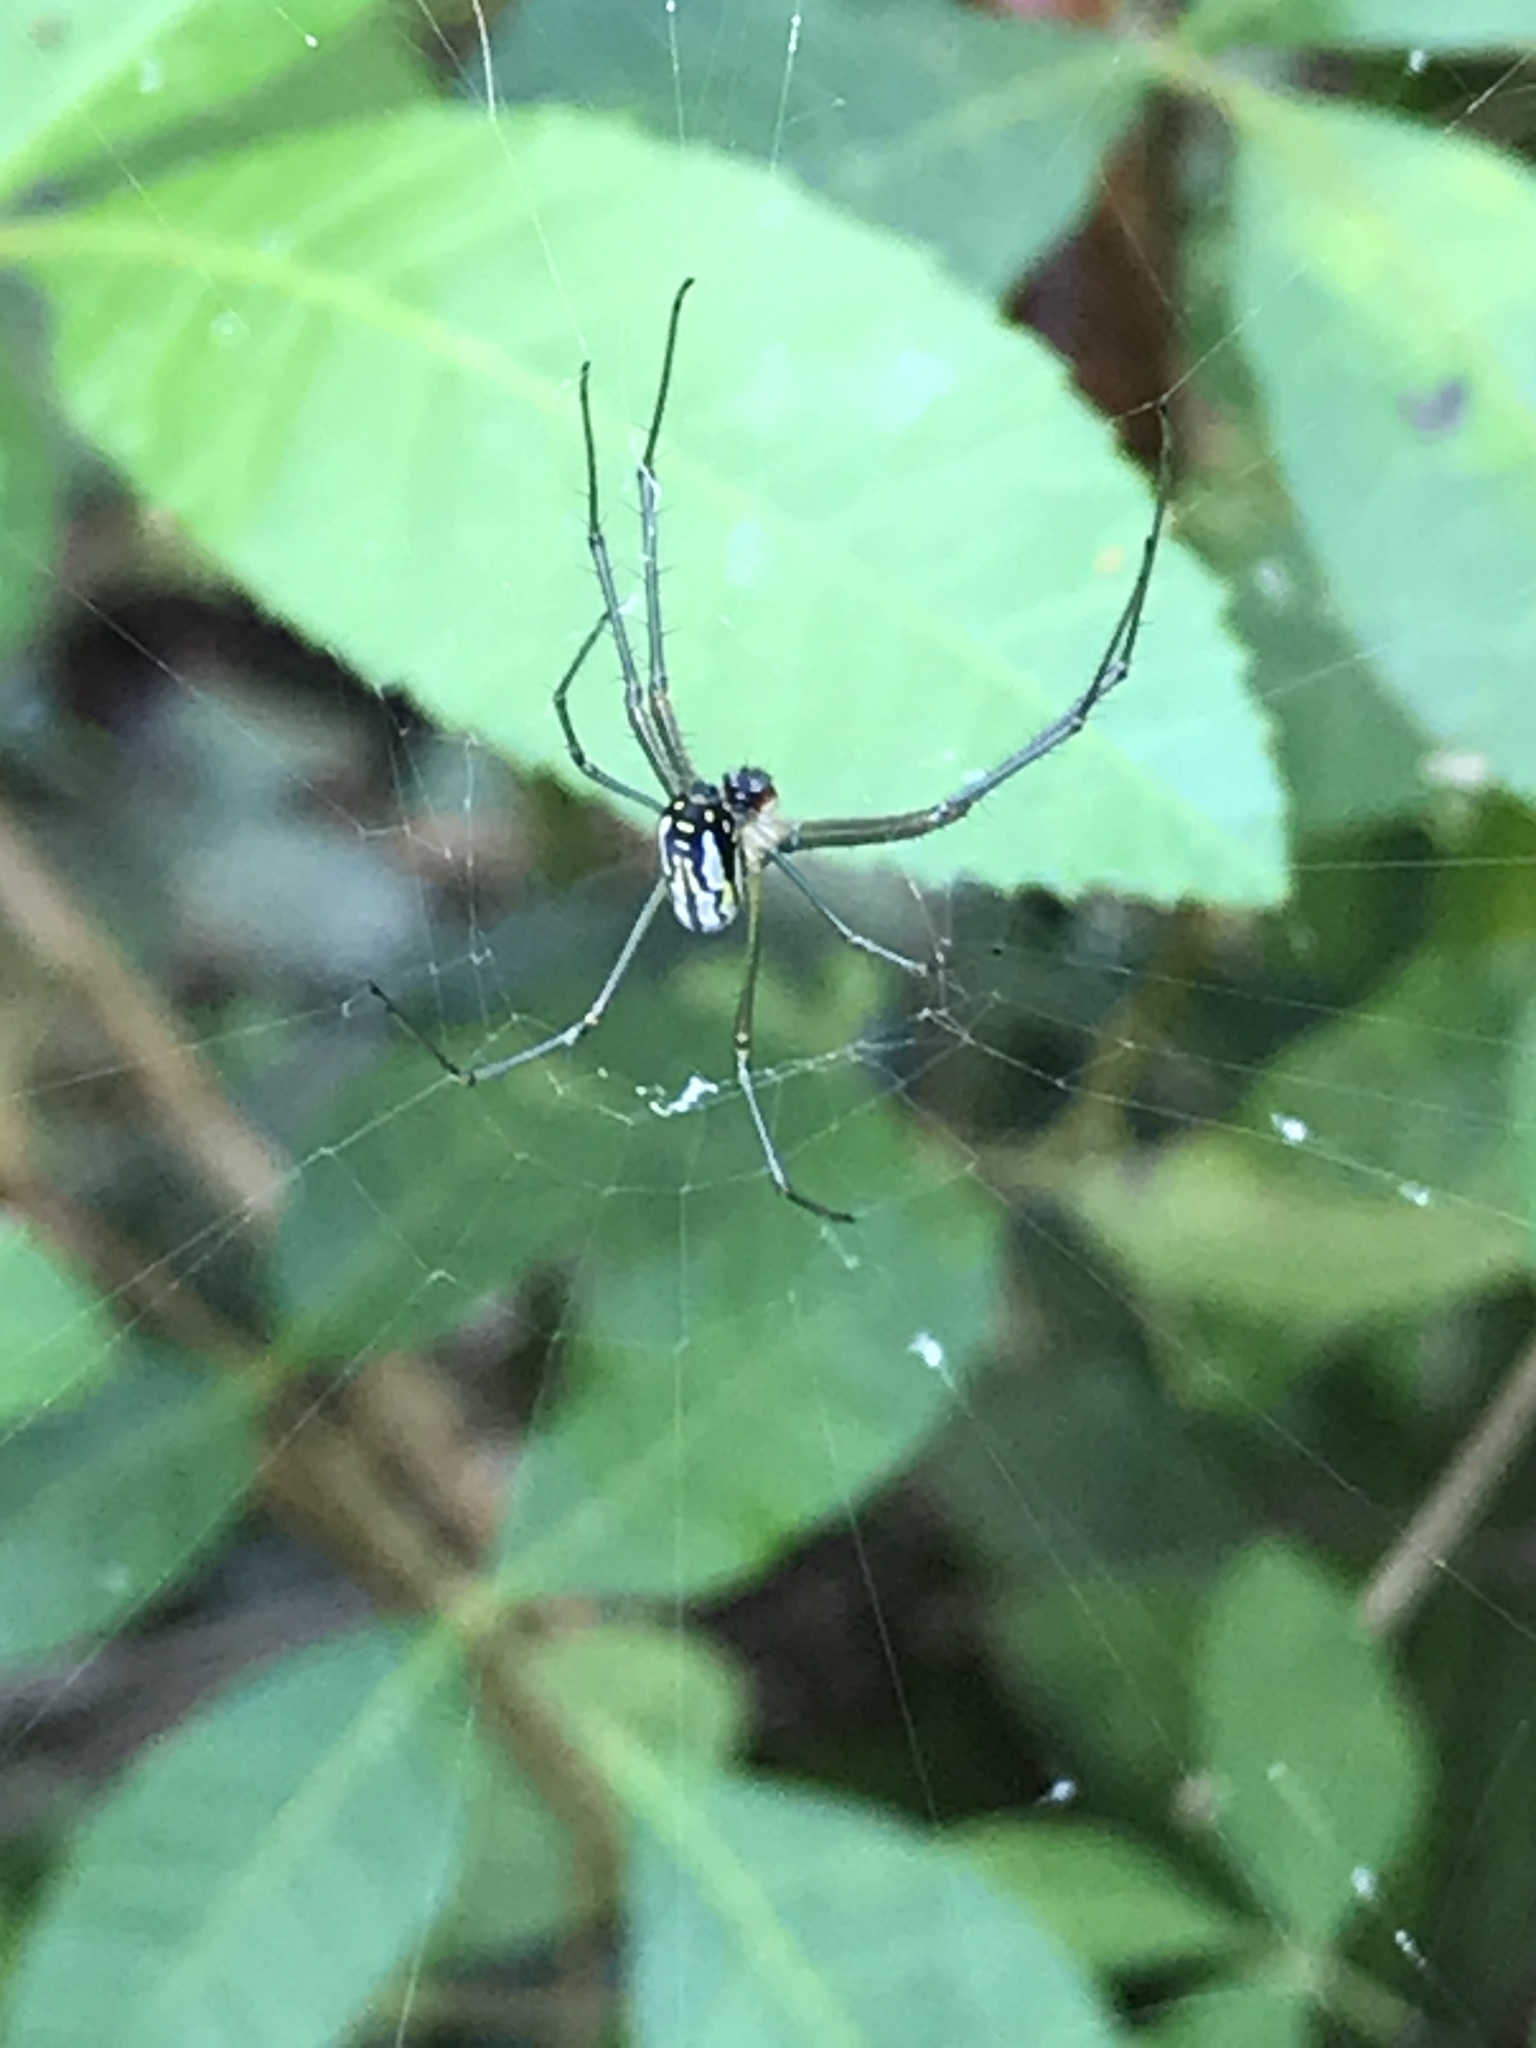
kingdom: Animalia
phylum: Arthropoda
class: Arachnida
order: Araneae
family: Tetragnathidae
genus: Leucauge
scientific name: Leucauge argyra
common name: Longjawed orb weavers
